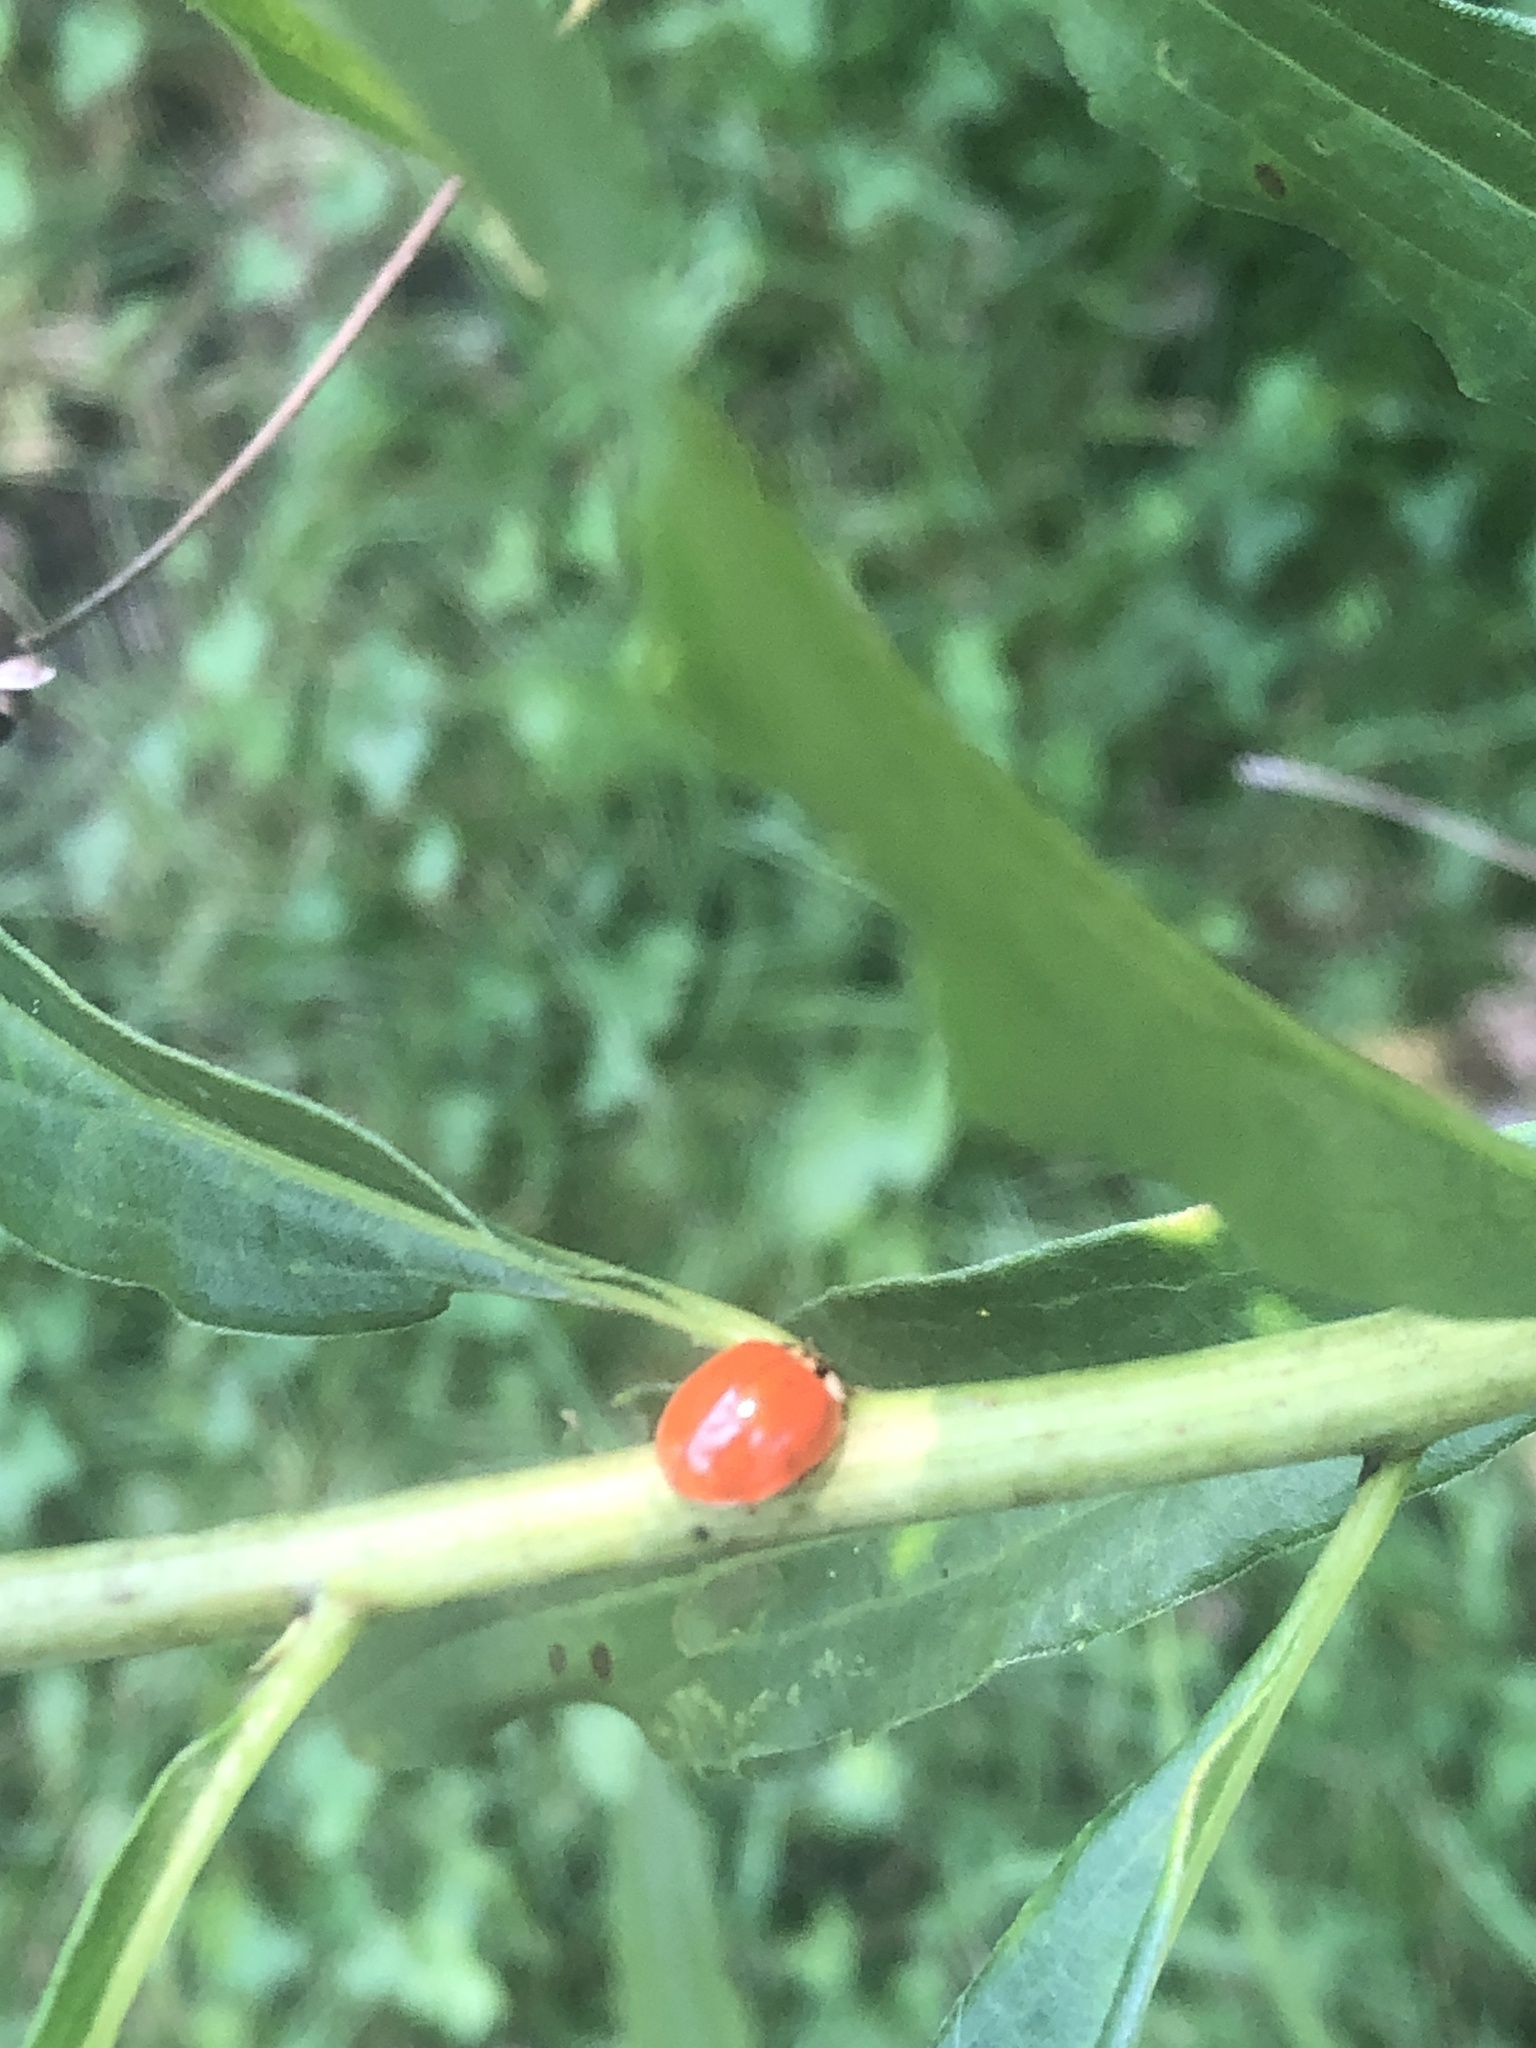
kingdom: Animalia
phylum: Arthropoda
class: Insecta
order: Coleoptera
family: Coccinellidae
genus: Harmonia
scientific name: Harmonia axyridis
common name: Harlequin ladybird
